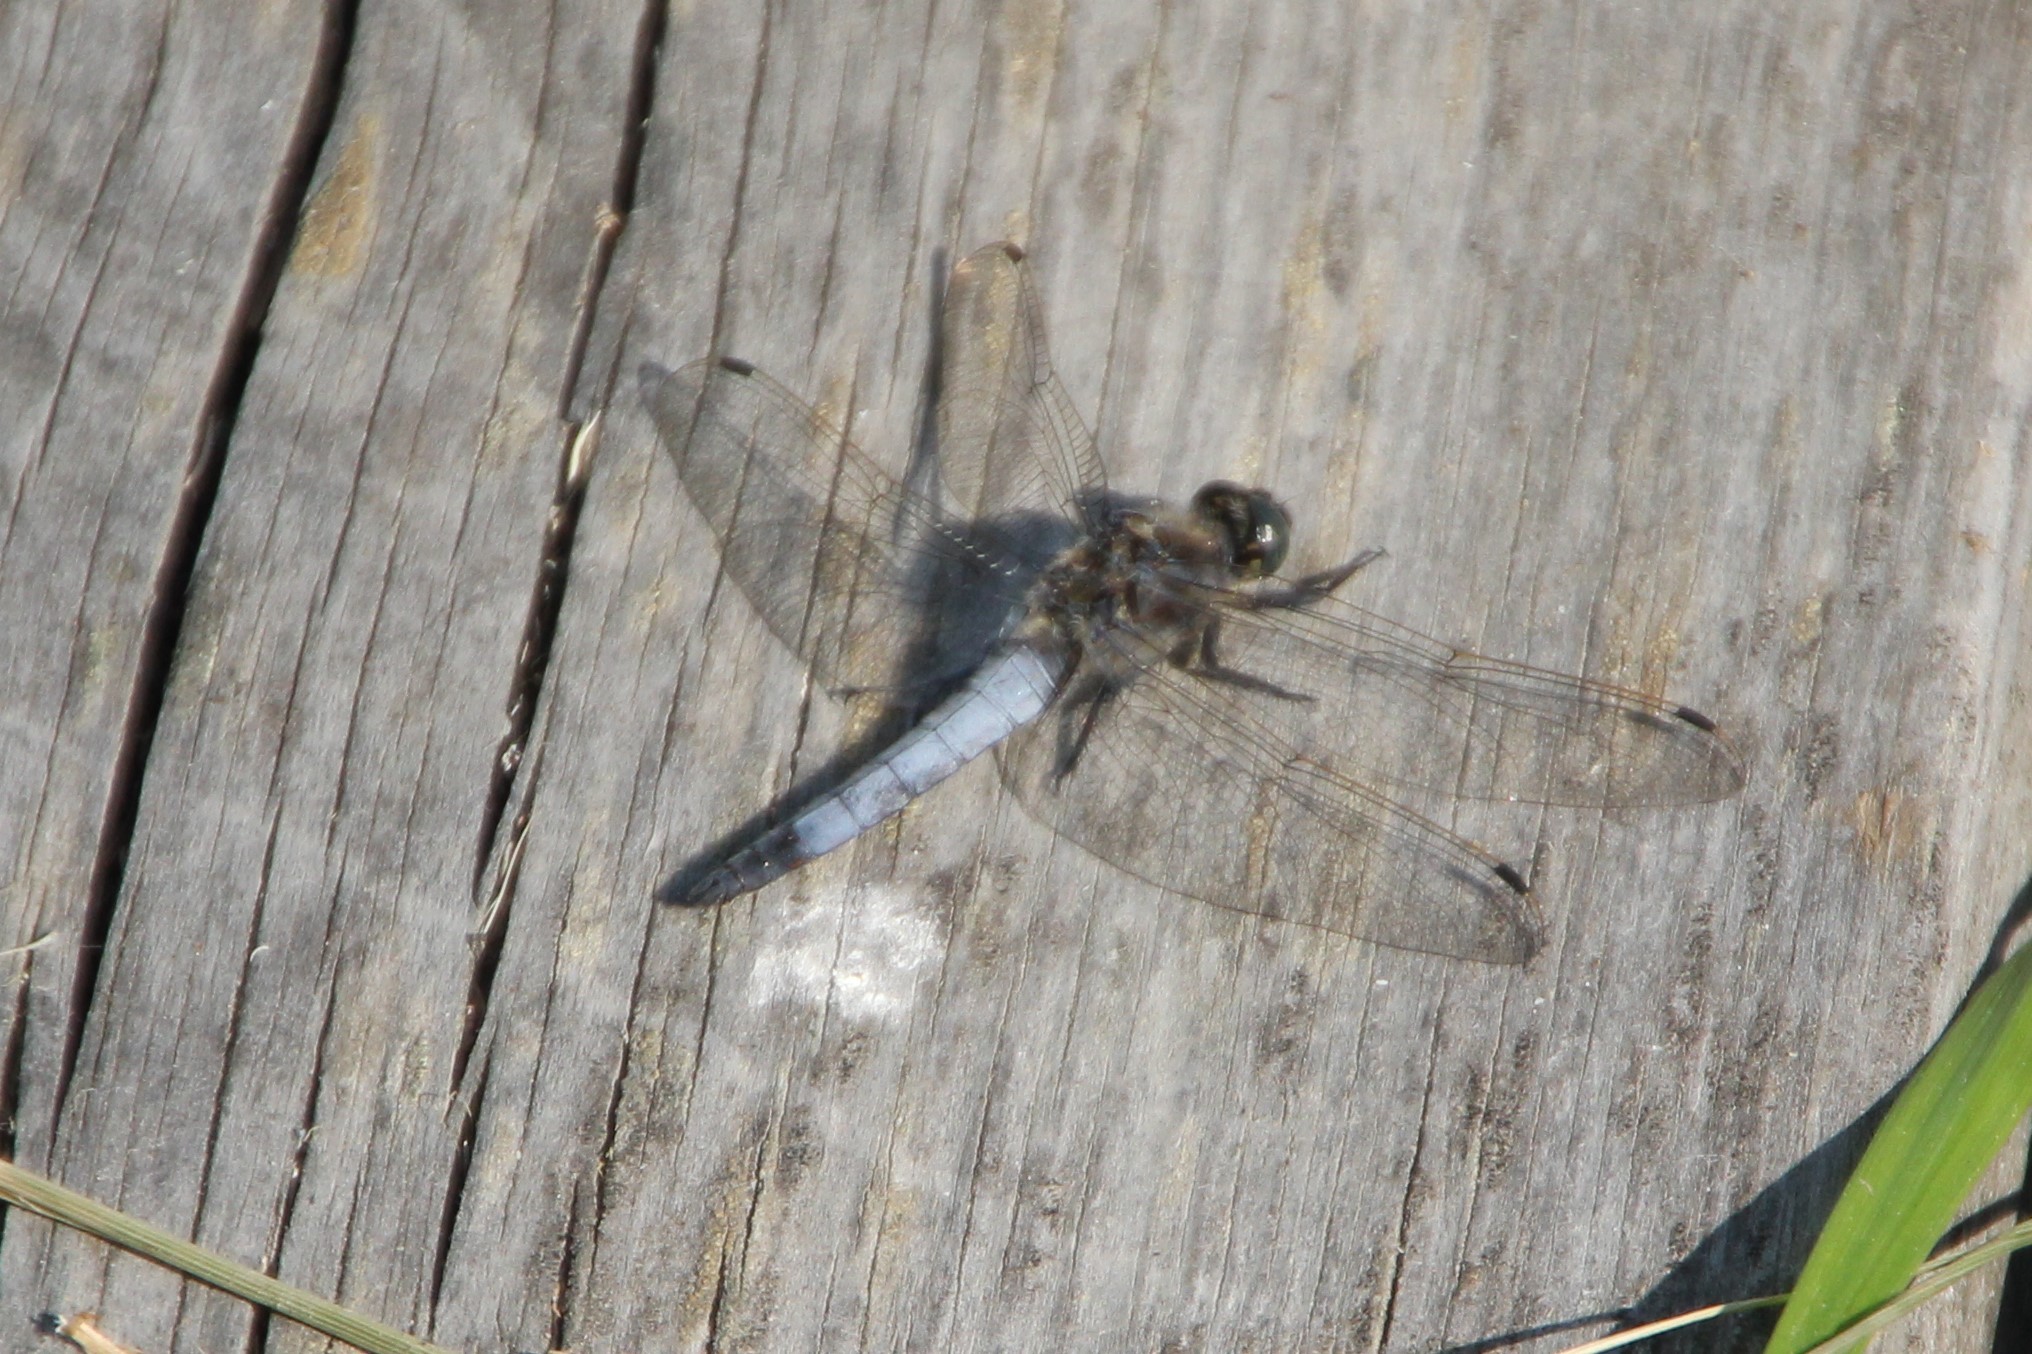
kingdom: Animalia
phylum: Arthropoda
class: Insecta
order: Odonata
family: Libellulidae
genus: Orthetrum
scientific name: Orthetrum cancellatum
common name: Black-tailed skimmer
